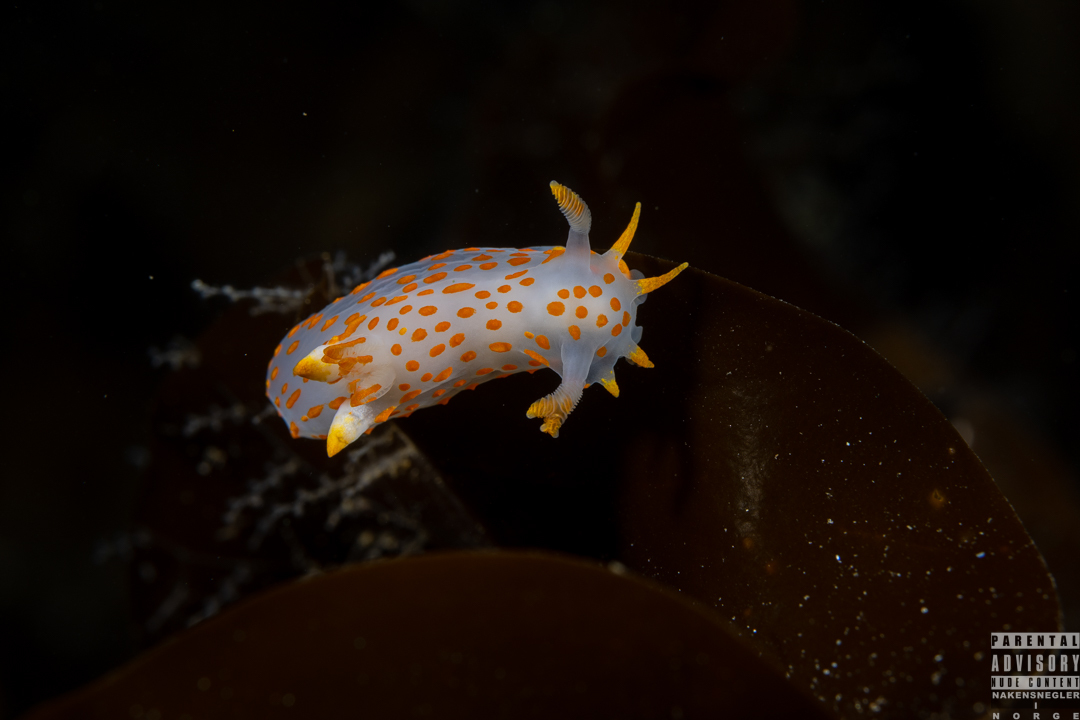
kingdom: Animalia
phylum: Mollusca
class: Gastropoda
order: Nudibranchia
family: Polyceridae
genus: Polycera
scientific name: Polycera quadrilineata
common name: Four-striped polycera
